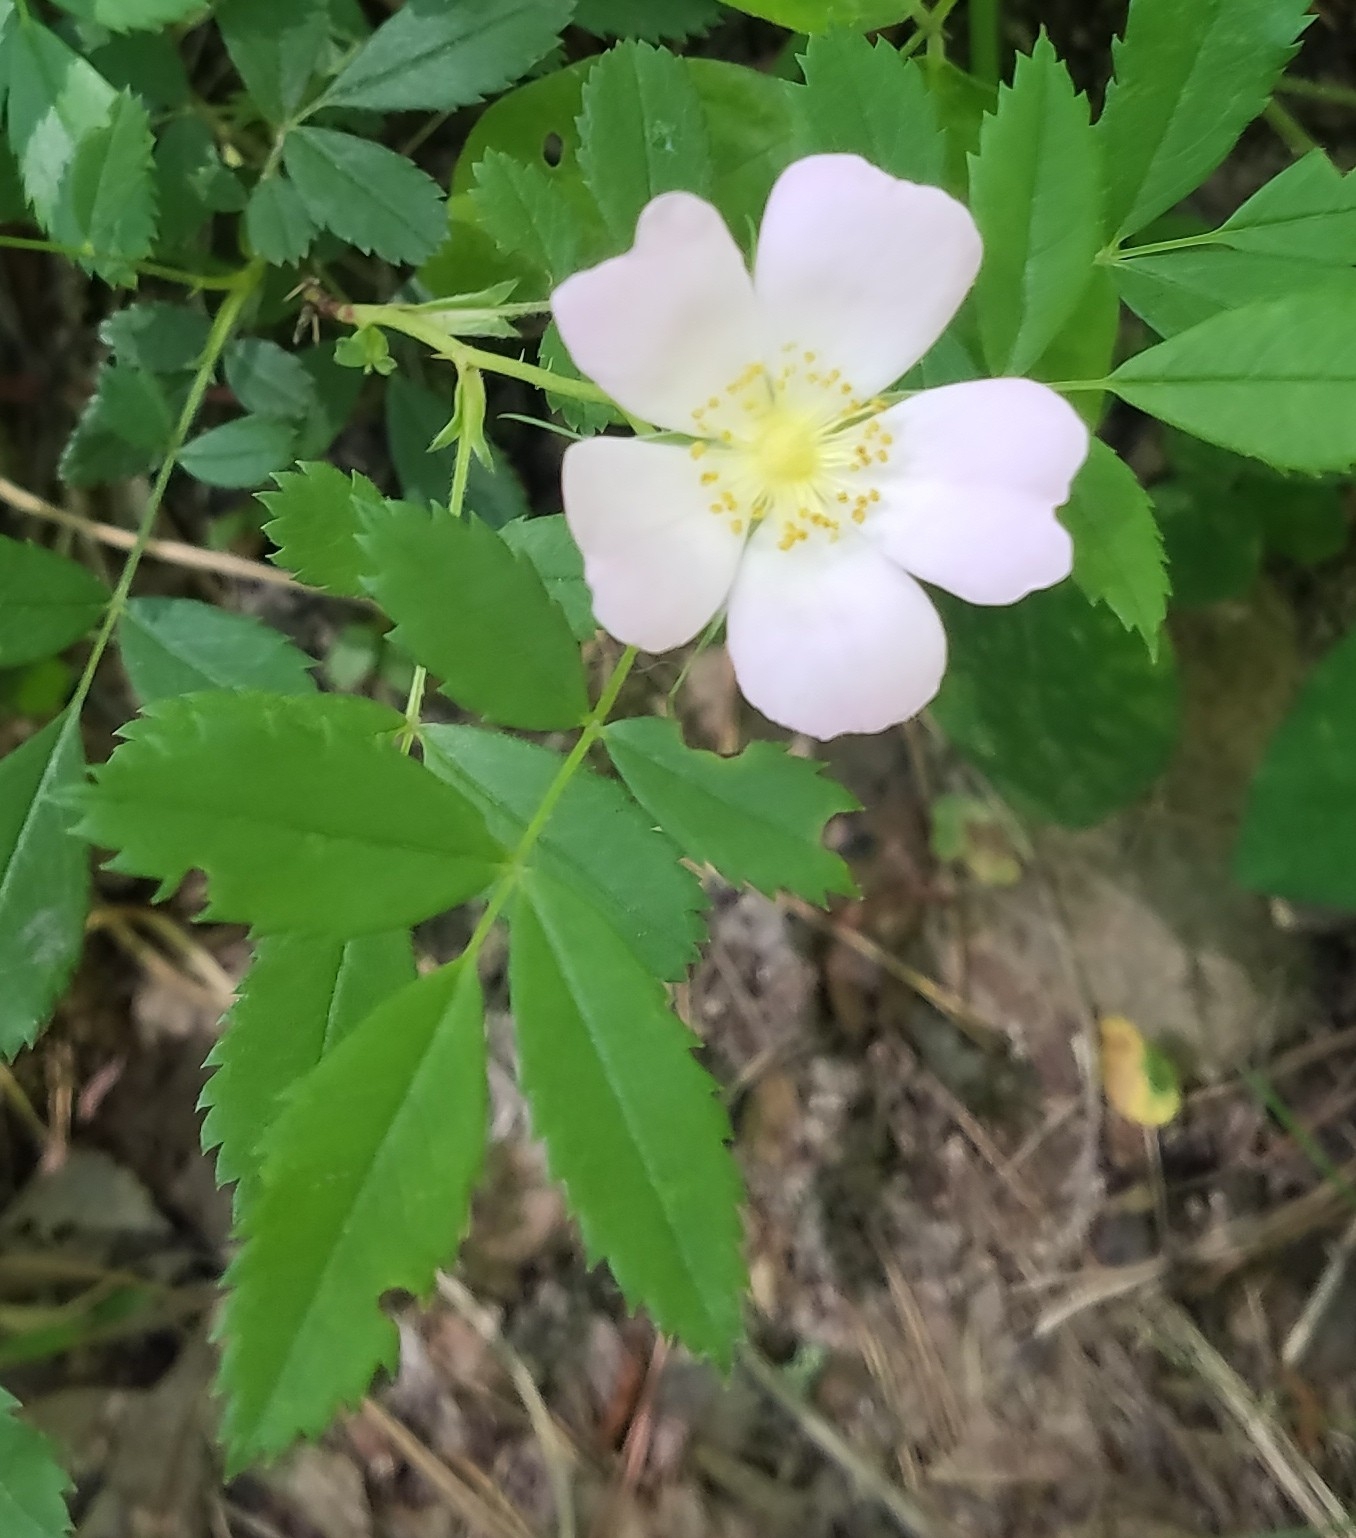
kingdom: Plantae
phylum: Tracheophyta
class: Magnoliopsida
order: Rosales
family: Rosaceae
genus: Rosa
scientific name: Rosa carolina
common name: Pasture rose
